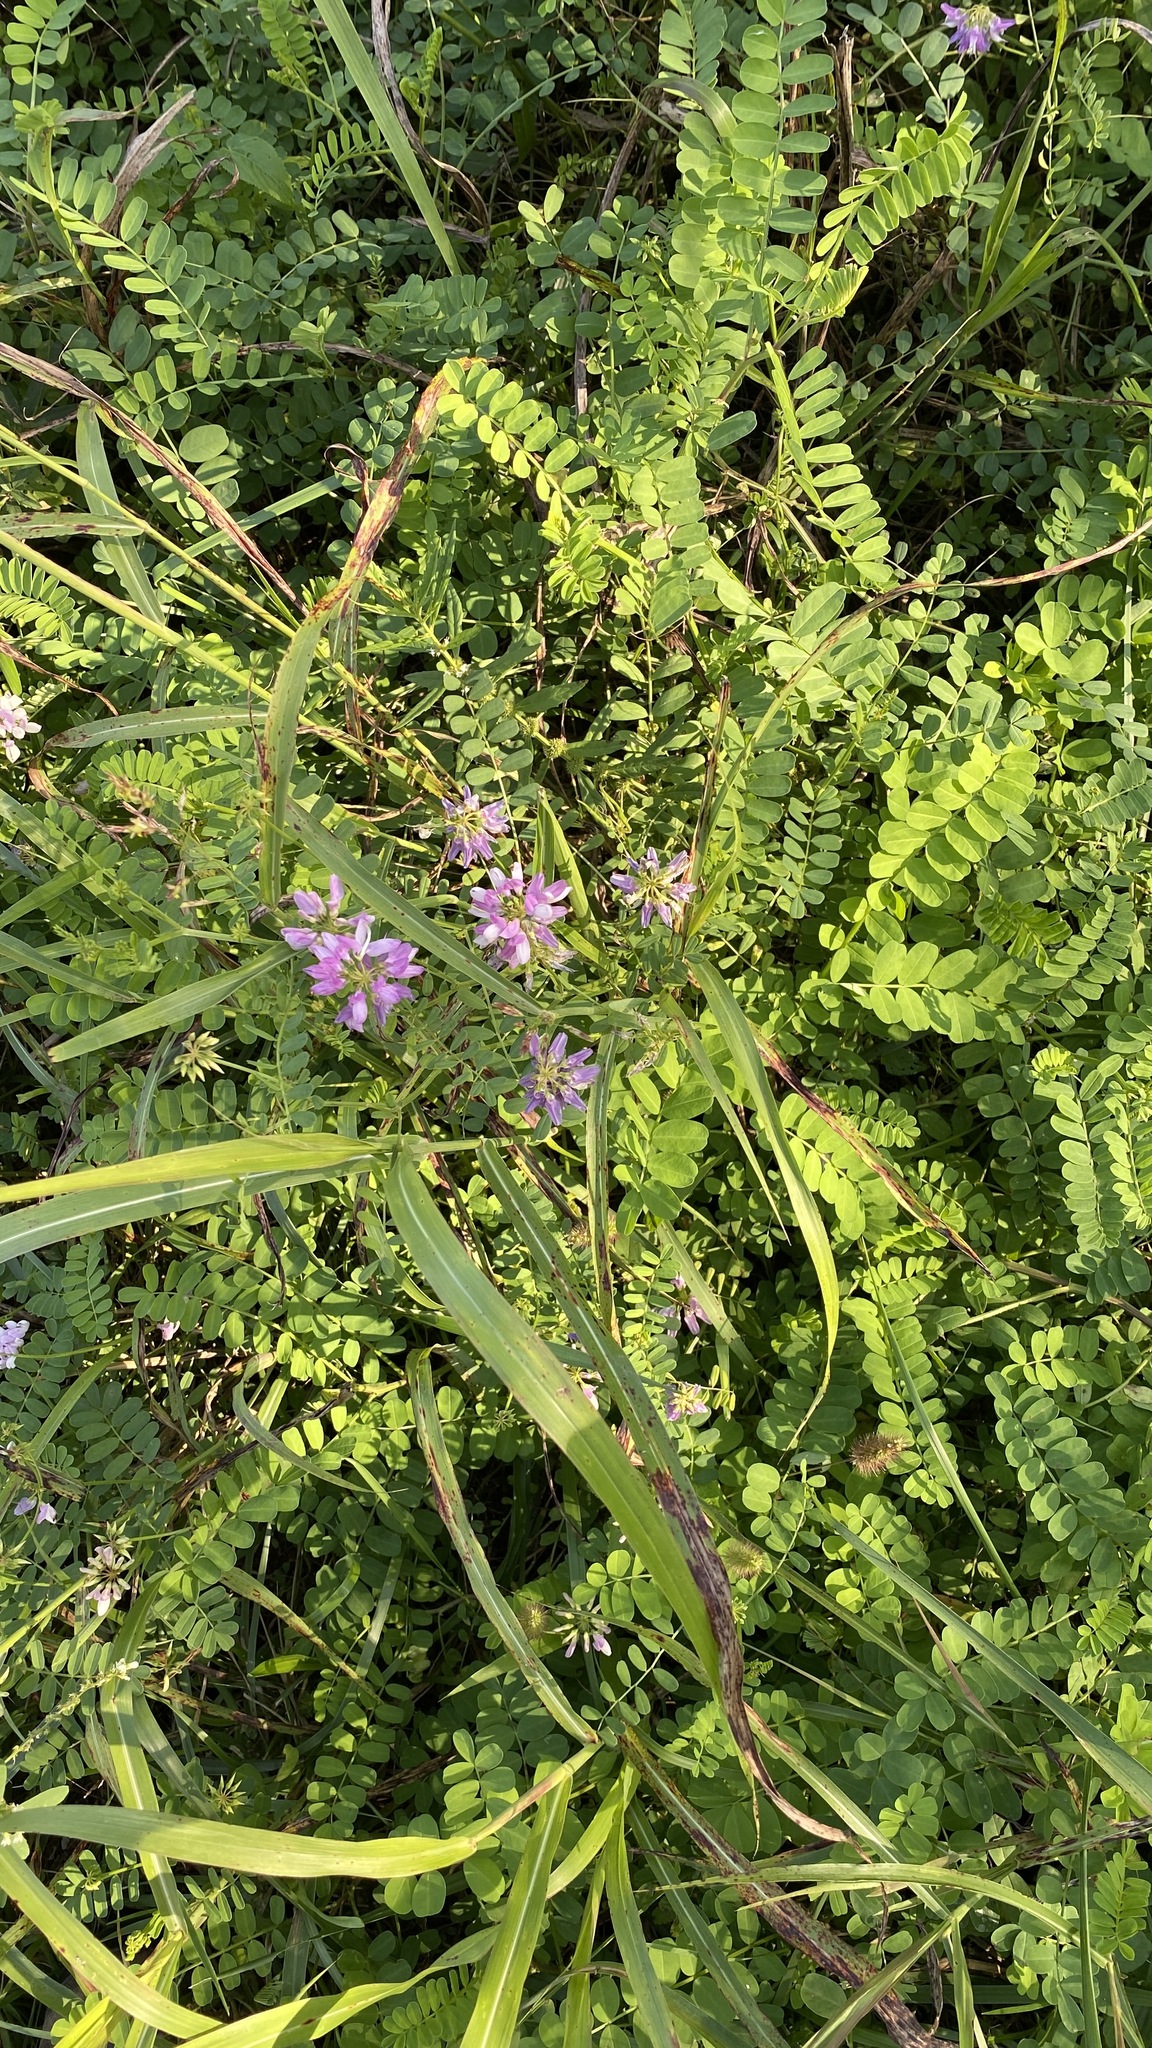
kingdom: Plantae
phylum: Tracheophyta
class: Magnoliopsida
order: Fabales
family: Fabaceae
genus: Coronilla
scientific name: Coronilla varia
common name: Crownvetch
